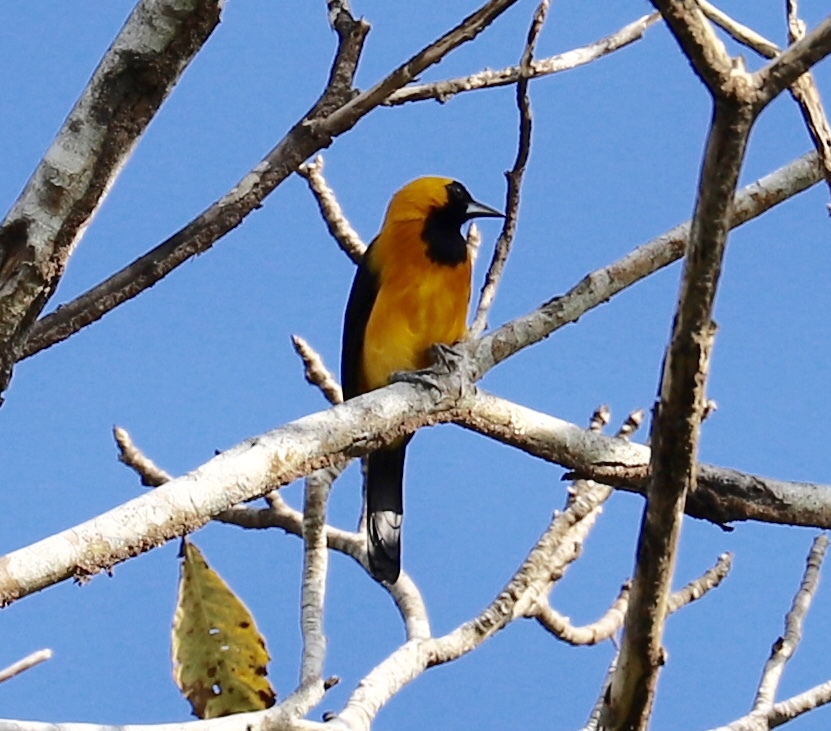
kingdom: Animalia
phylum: Chordata
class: Aves
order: Passeriformes
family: Icteridae
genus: Icterus
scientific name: Icterus chrysater
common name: Yellow-backed oriole
